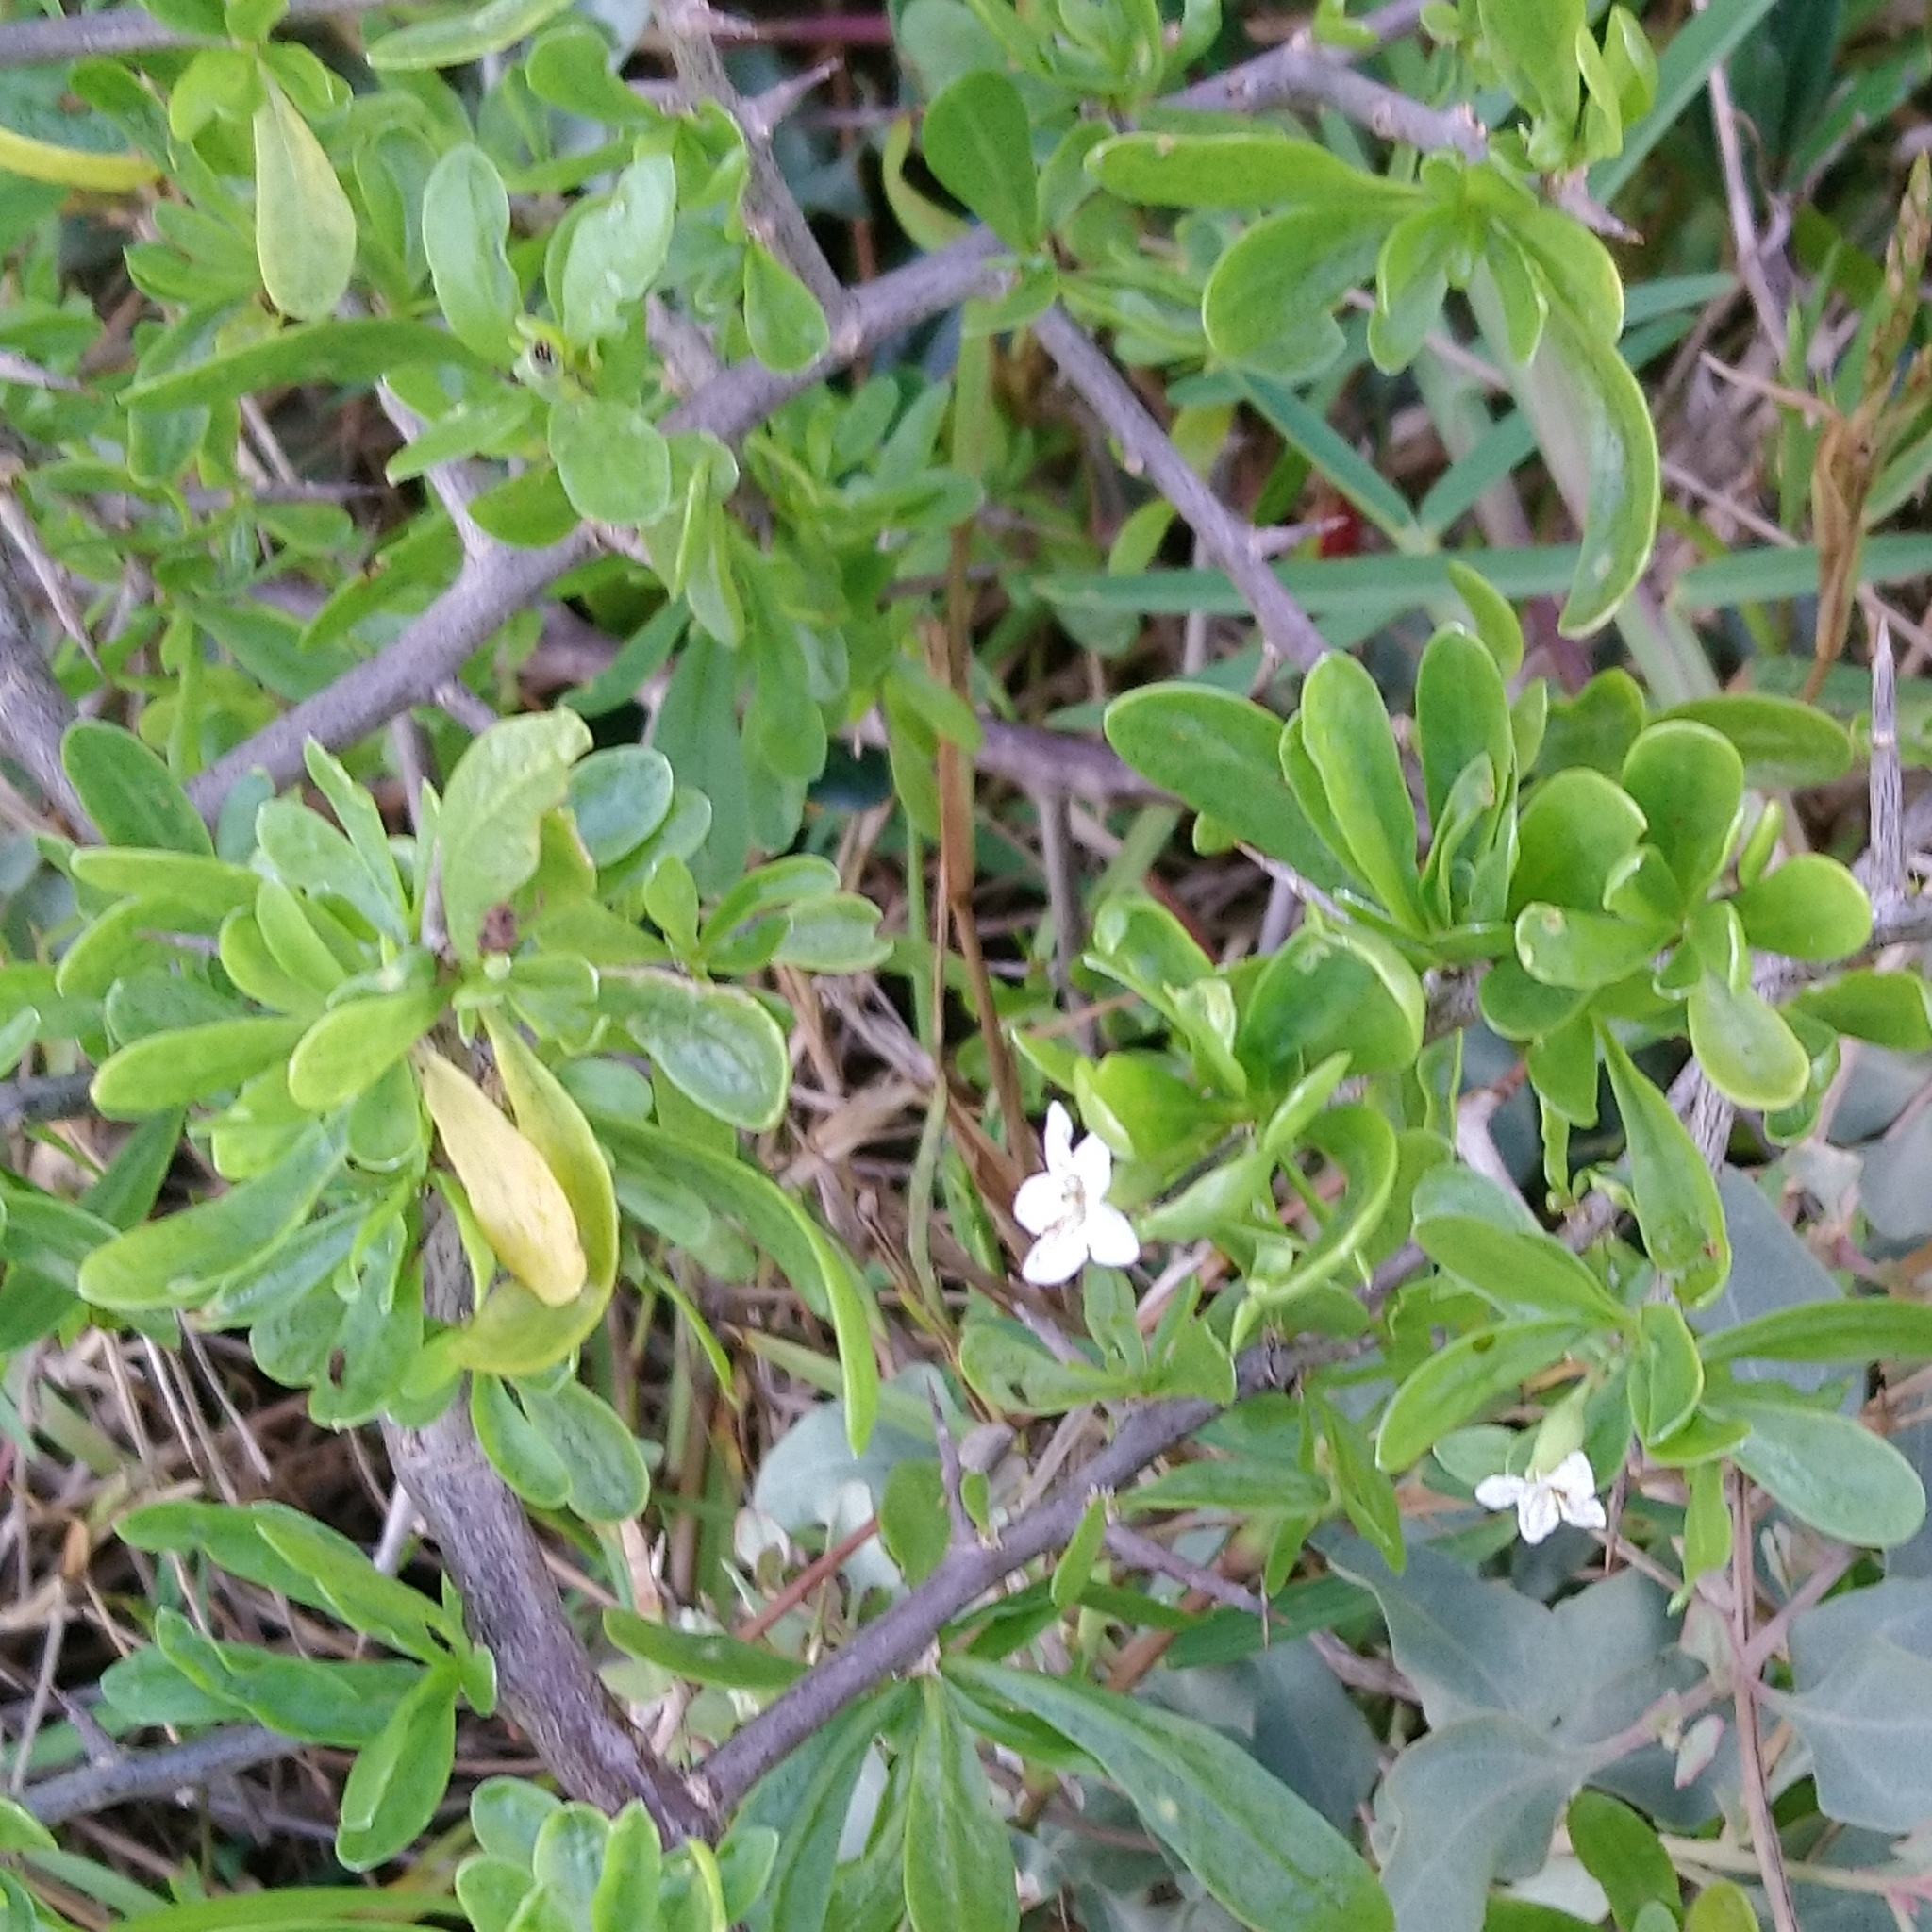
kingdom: Plantae
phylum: Tracheophyta
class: Magnoliopsida
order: Solanales
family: Solanaceae
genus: Lycium
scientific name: Lycium ferocissimum
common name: African boxthorn
